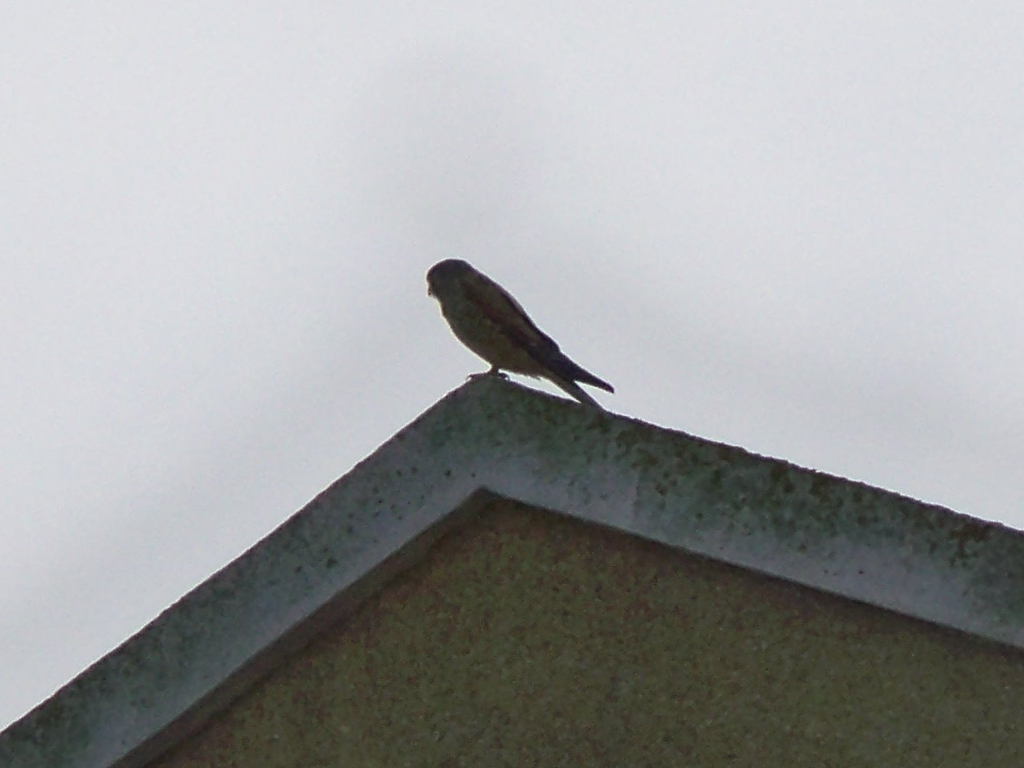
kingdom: Animalia
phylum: Chordata
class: Aves
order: Falconiformes
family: Falconidae
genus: Falco
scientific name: Falco tinnunculus
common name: Common kestrel
